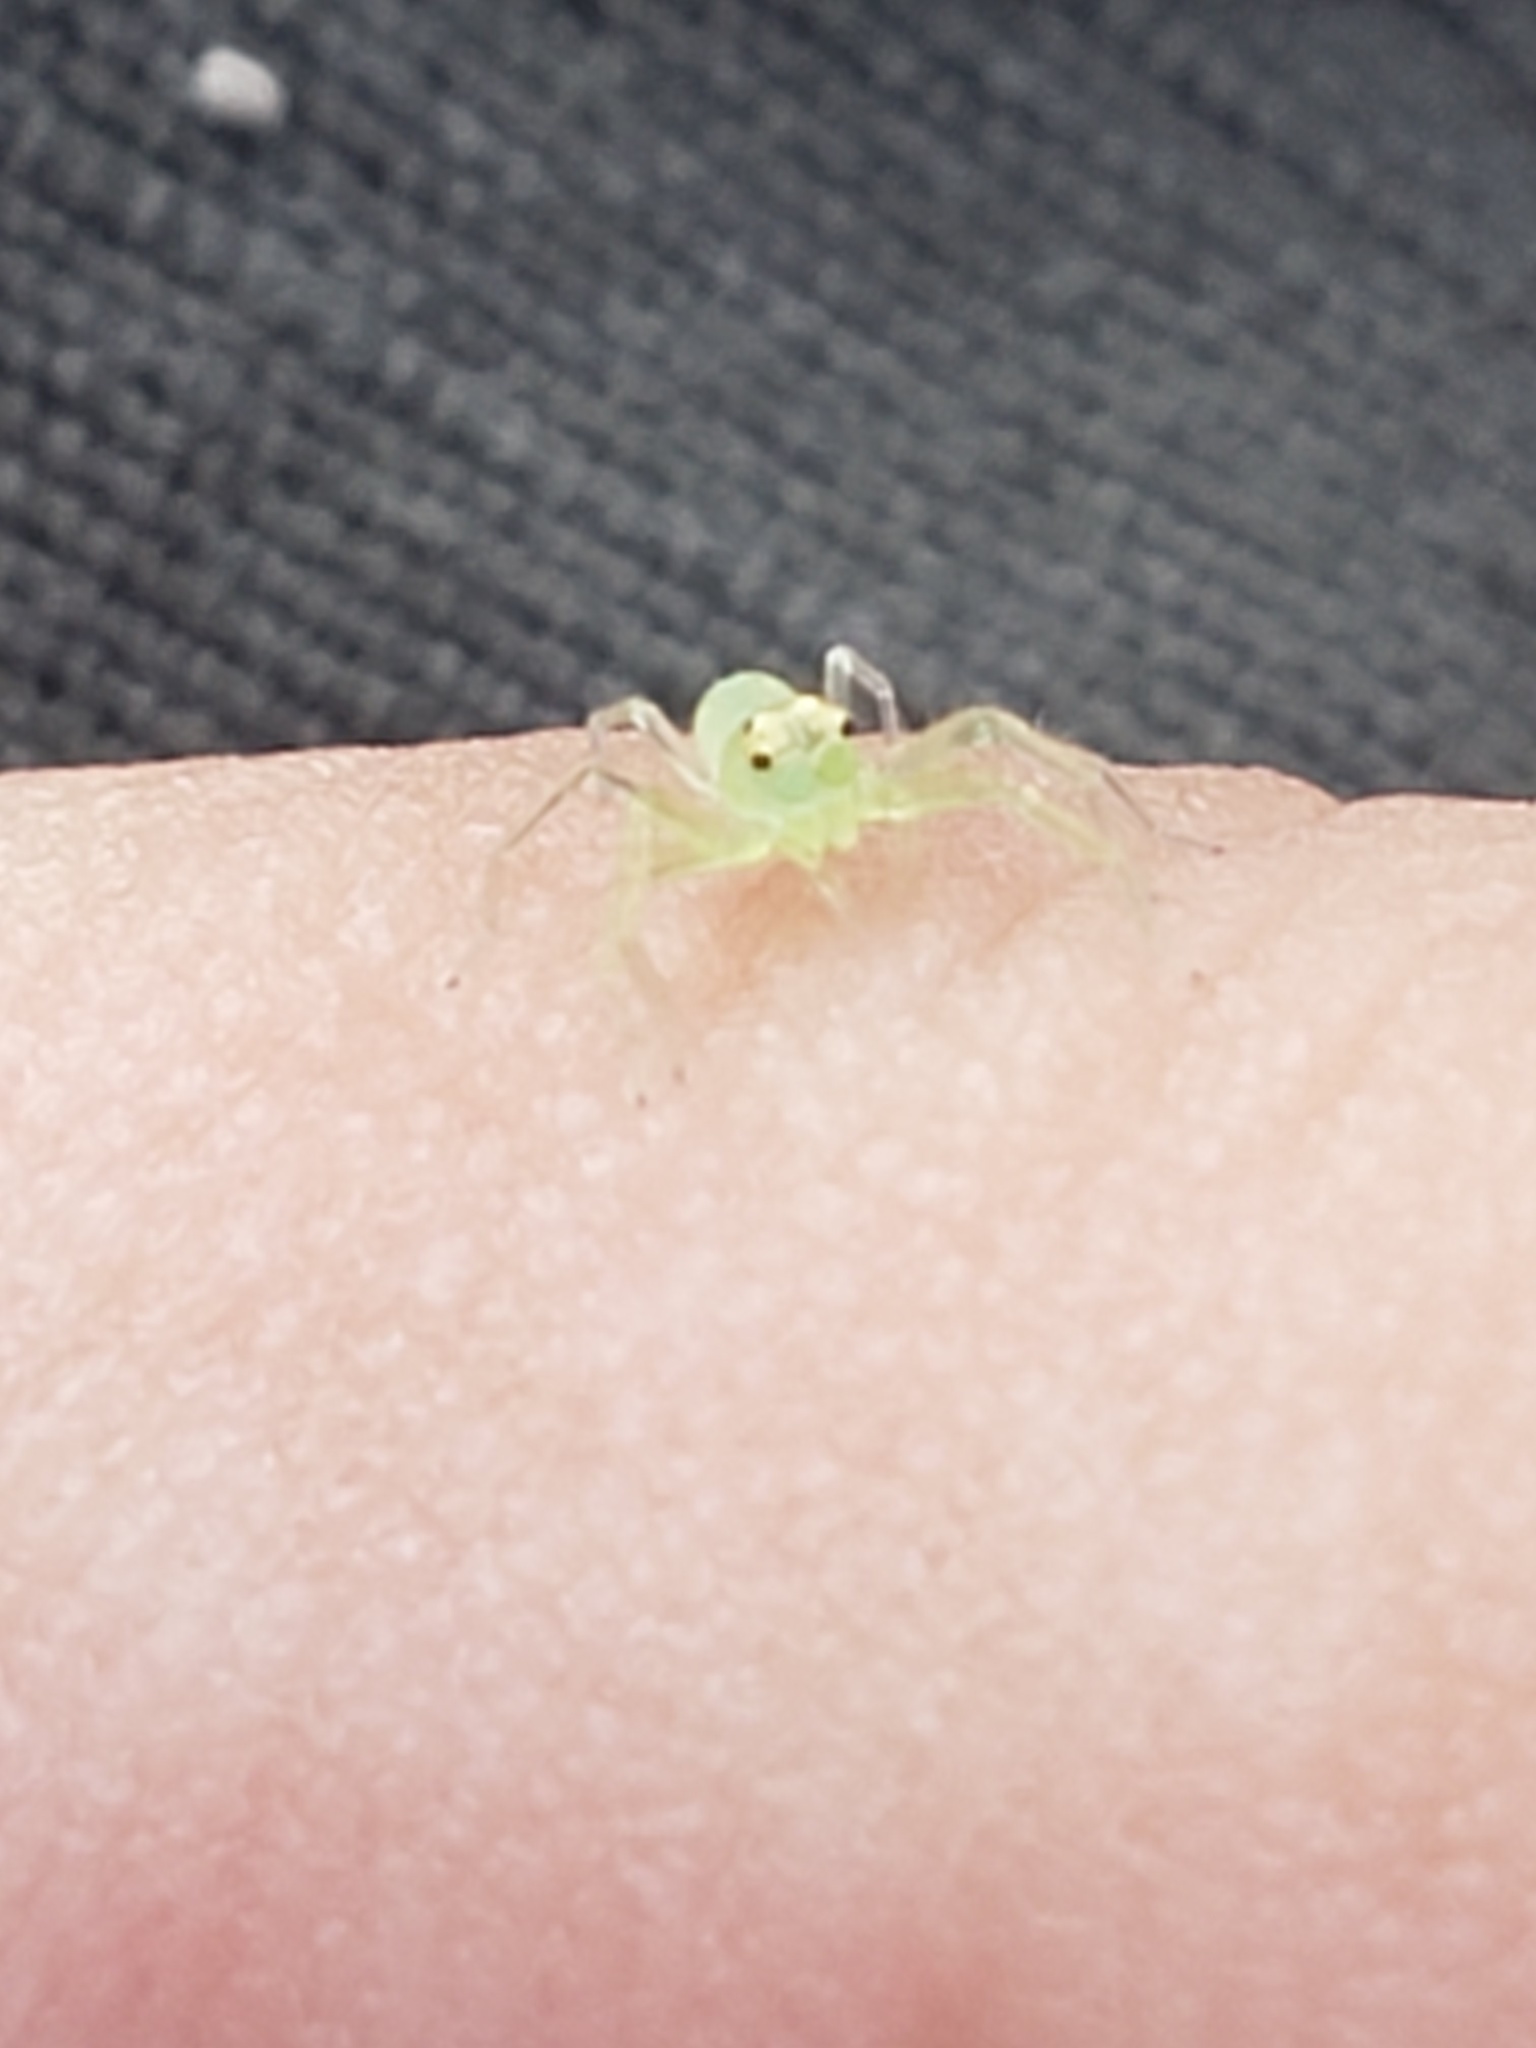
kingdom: Animalia
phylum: Arthropoda
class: Arachnida
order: Araneae
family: Salticidae
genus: Lyssomanes
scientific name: Lyssomanes viridis
